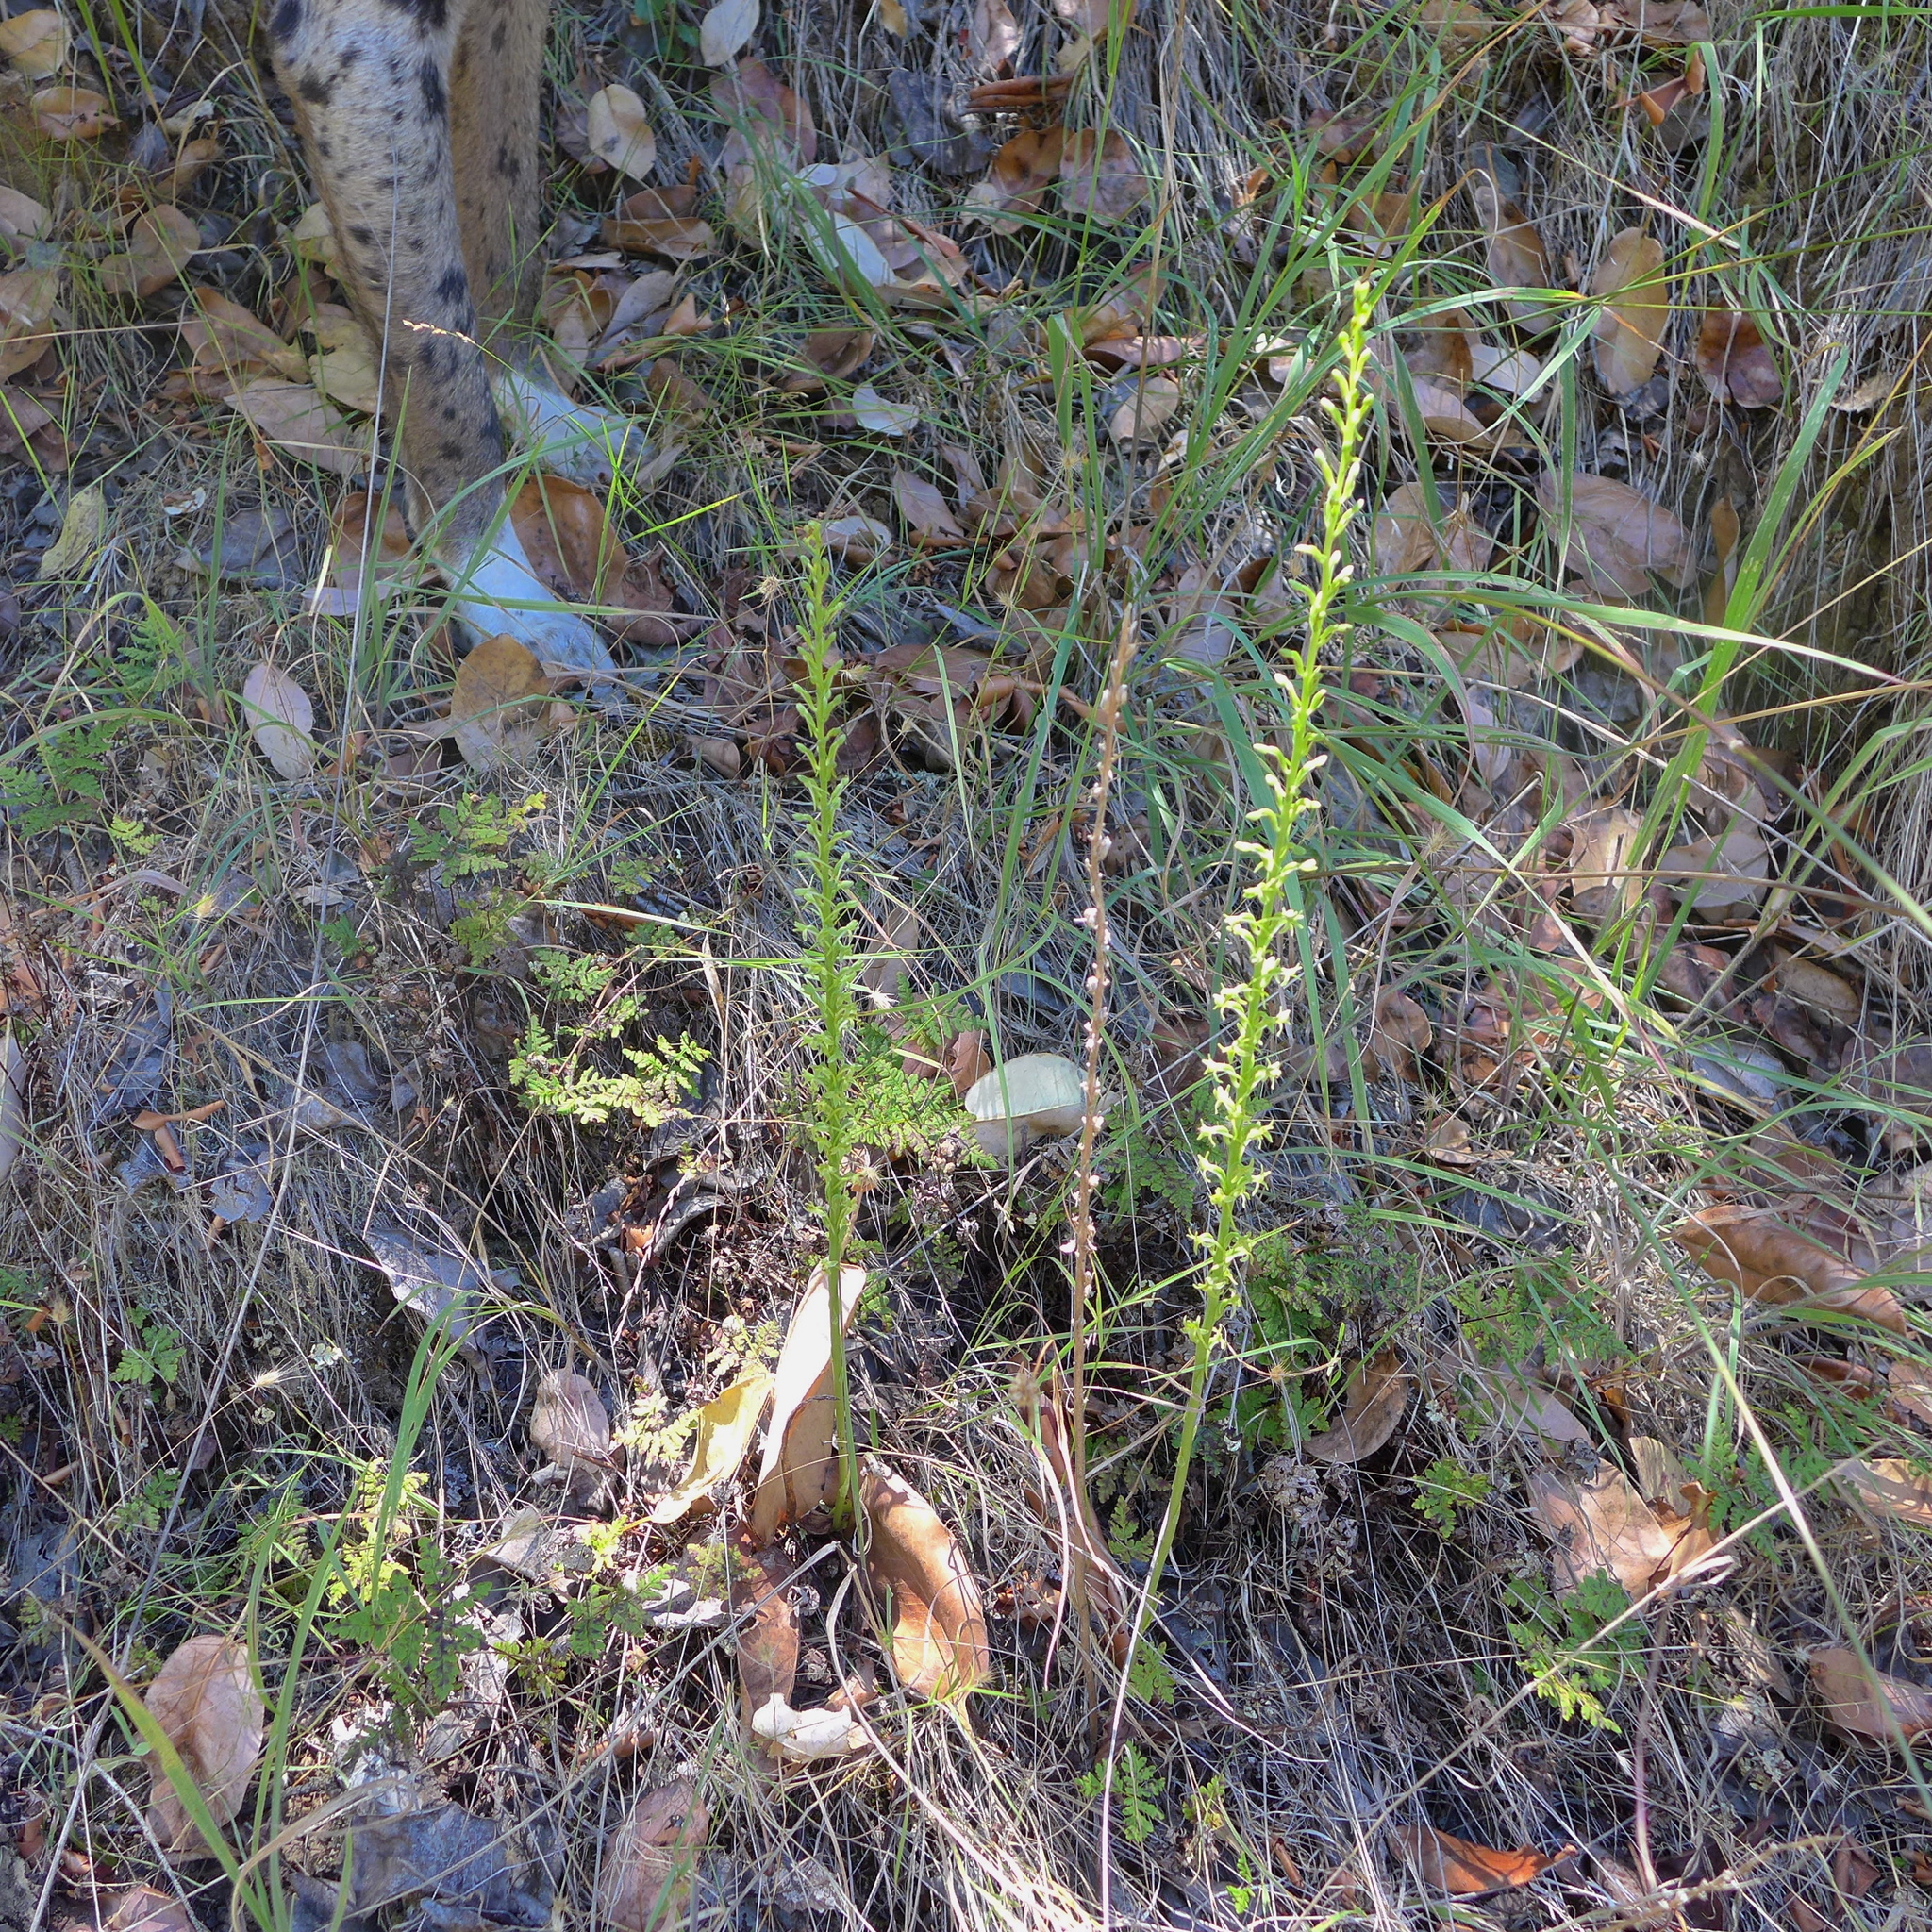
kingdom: Plantae
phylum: Tracheophyta
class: Liliopsida
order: Asparagales
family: Orchidaceae
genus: Platanthera
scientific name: Platanthera elongata
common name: Dense-flowered rein orchid
